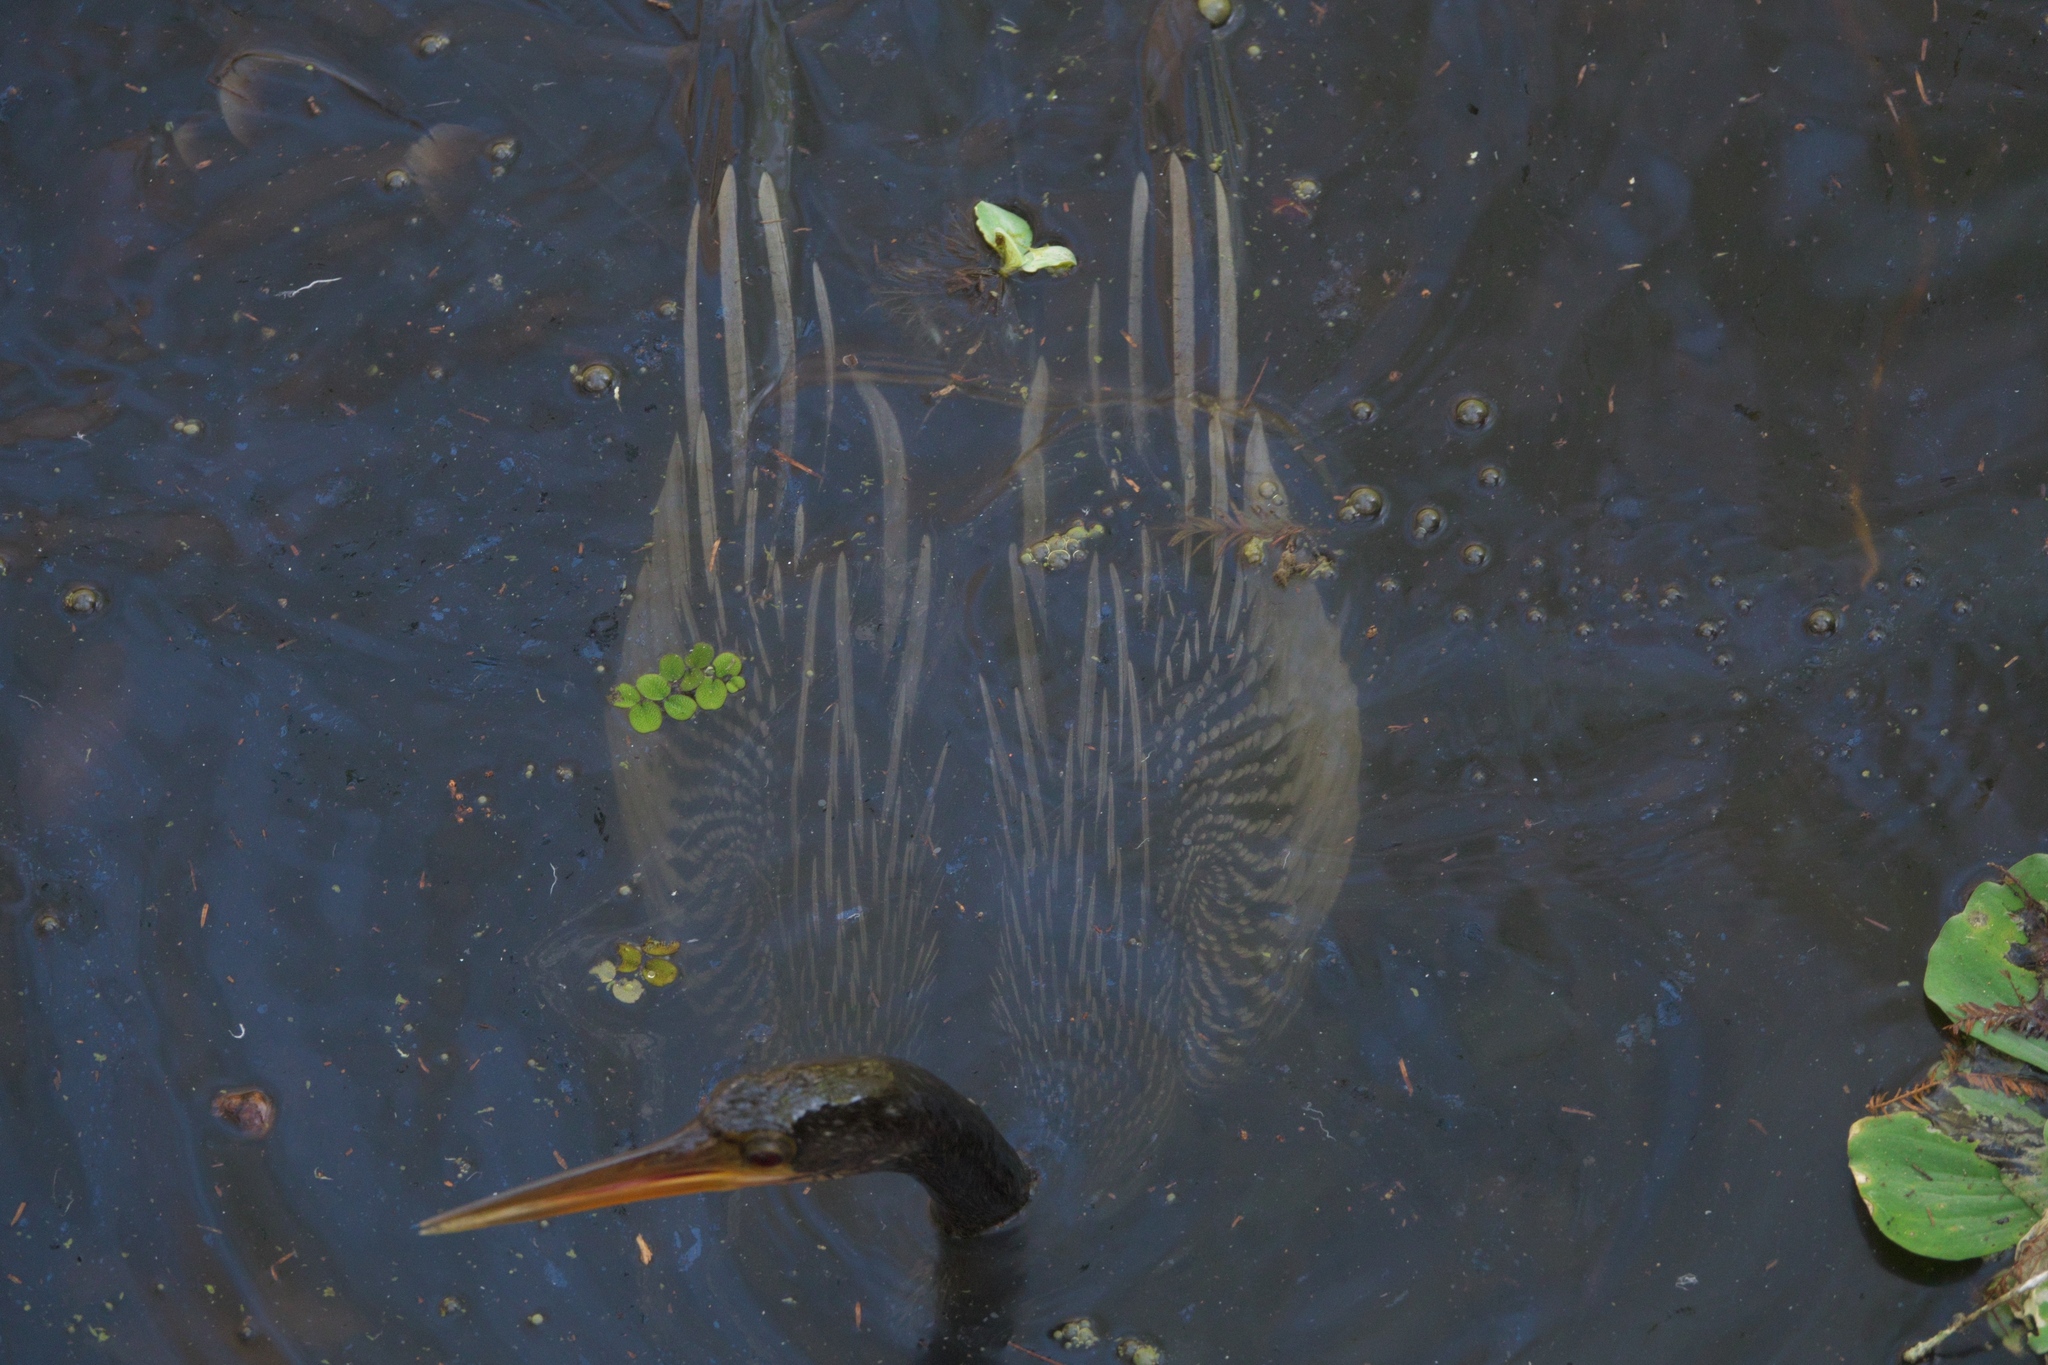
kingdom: Animalia
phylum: Chordata
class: Aves
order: Suliformes
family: Anhingidae
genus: Anhinga
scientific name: Anhinga anhinga
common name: Anhinga
